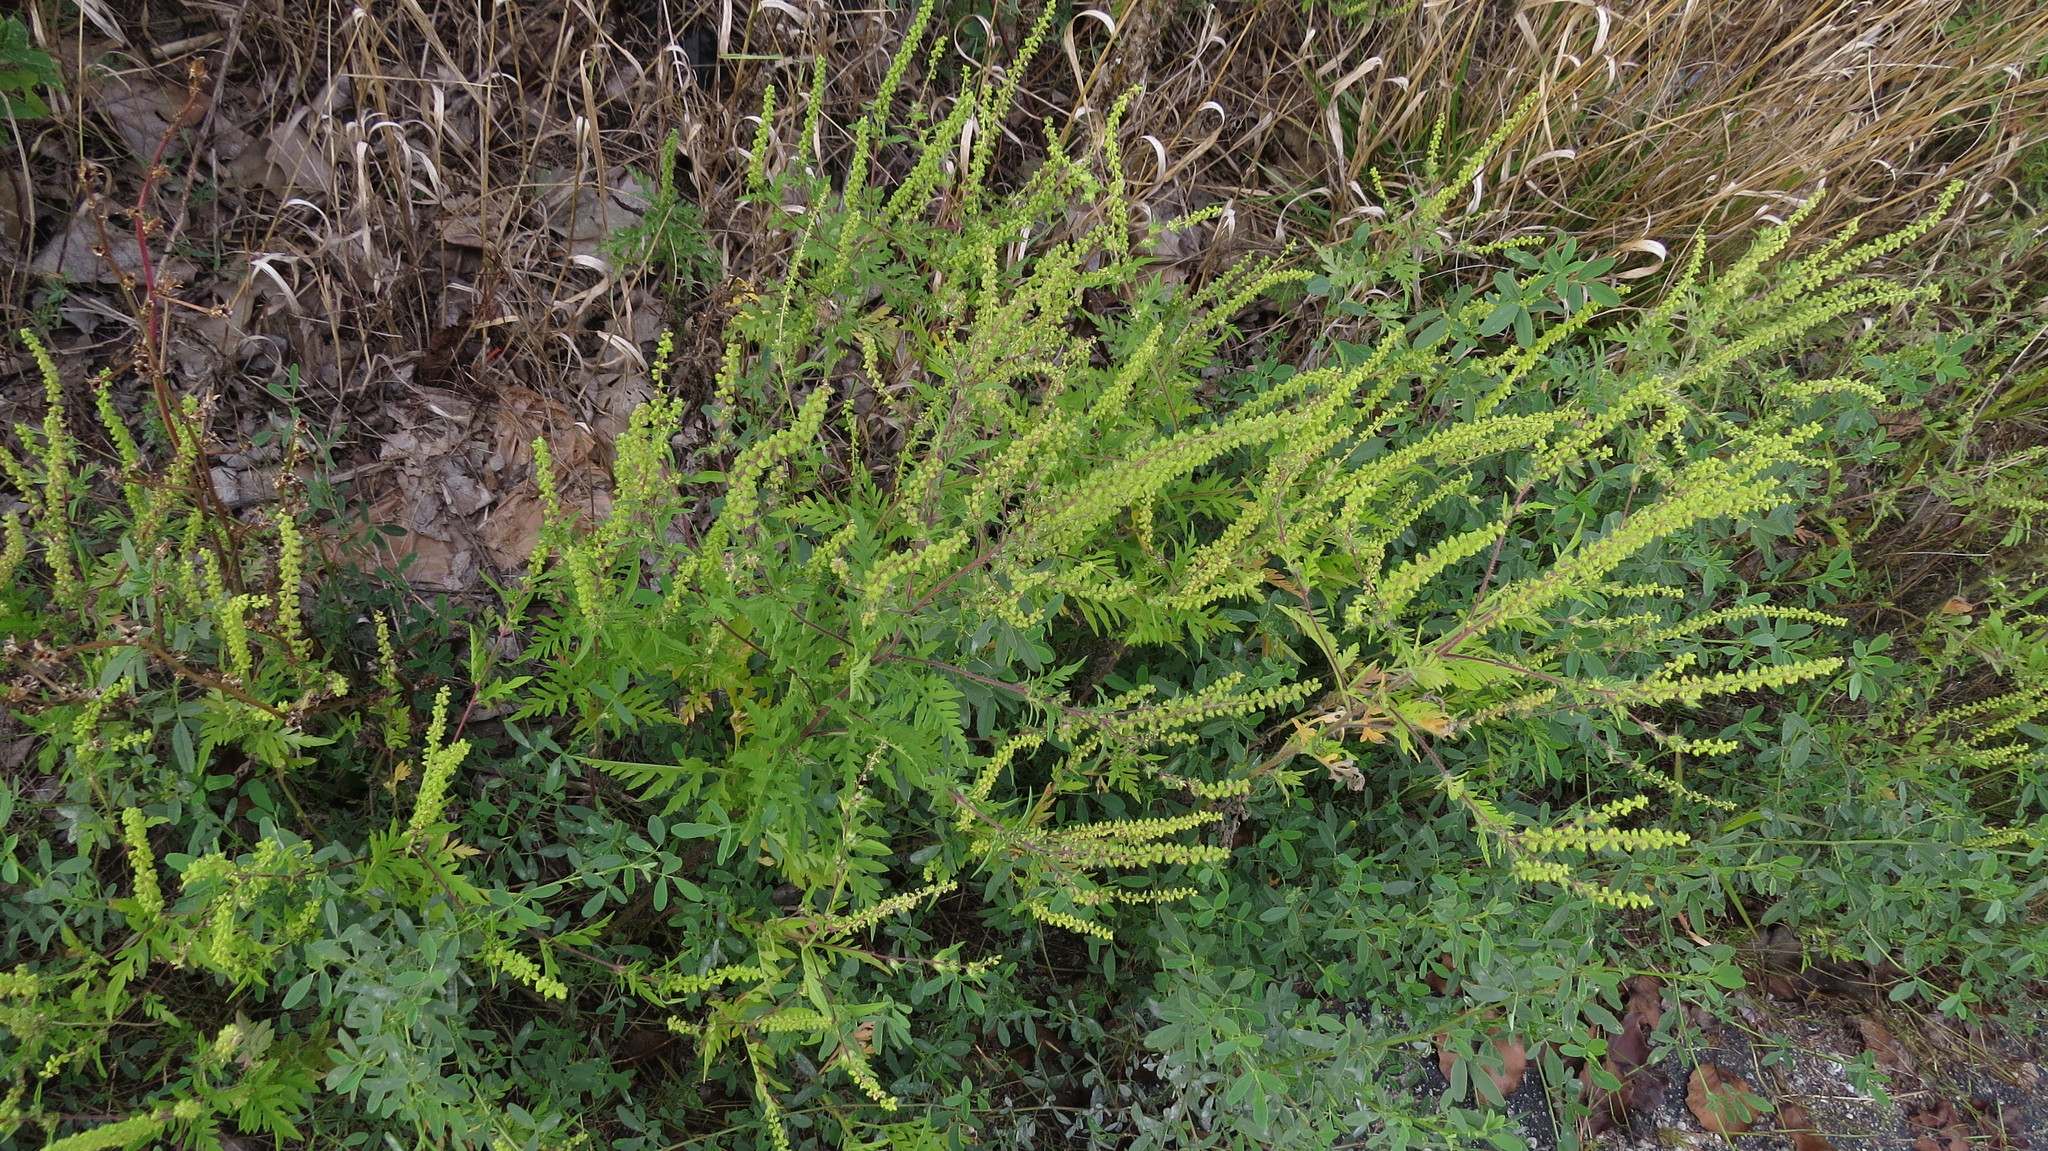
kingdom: Plantae
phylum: Tracheophyta
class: Magnoliopsida
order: Asterales
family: Asteraceae
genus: Ambrosia
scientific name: Ambrosia artemisiifolia
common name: Annual ragweed
